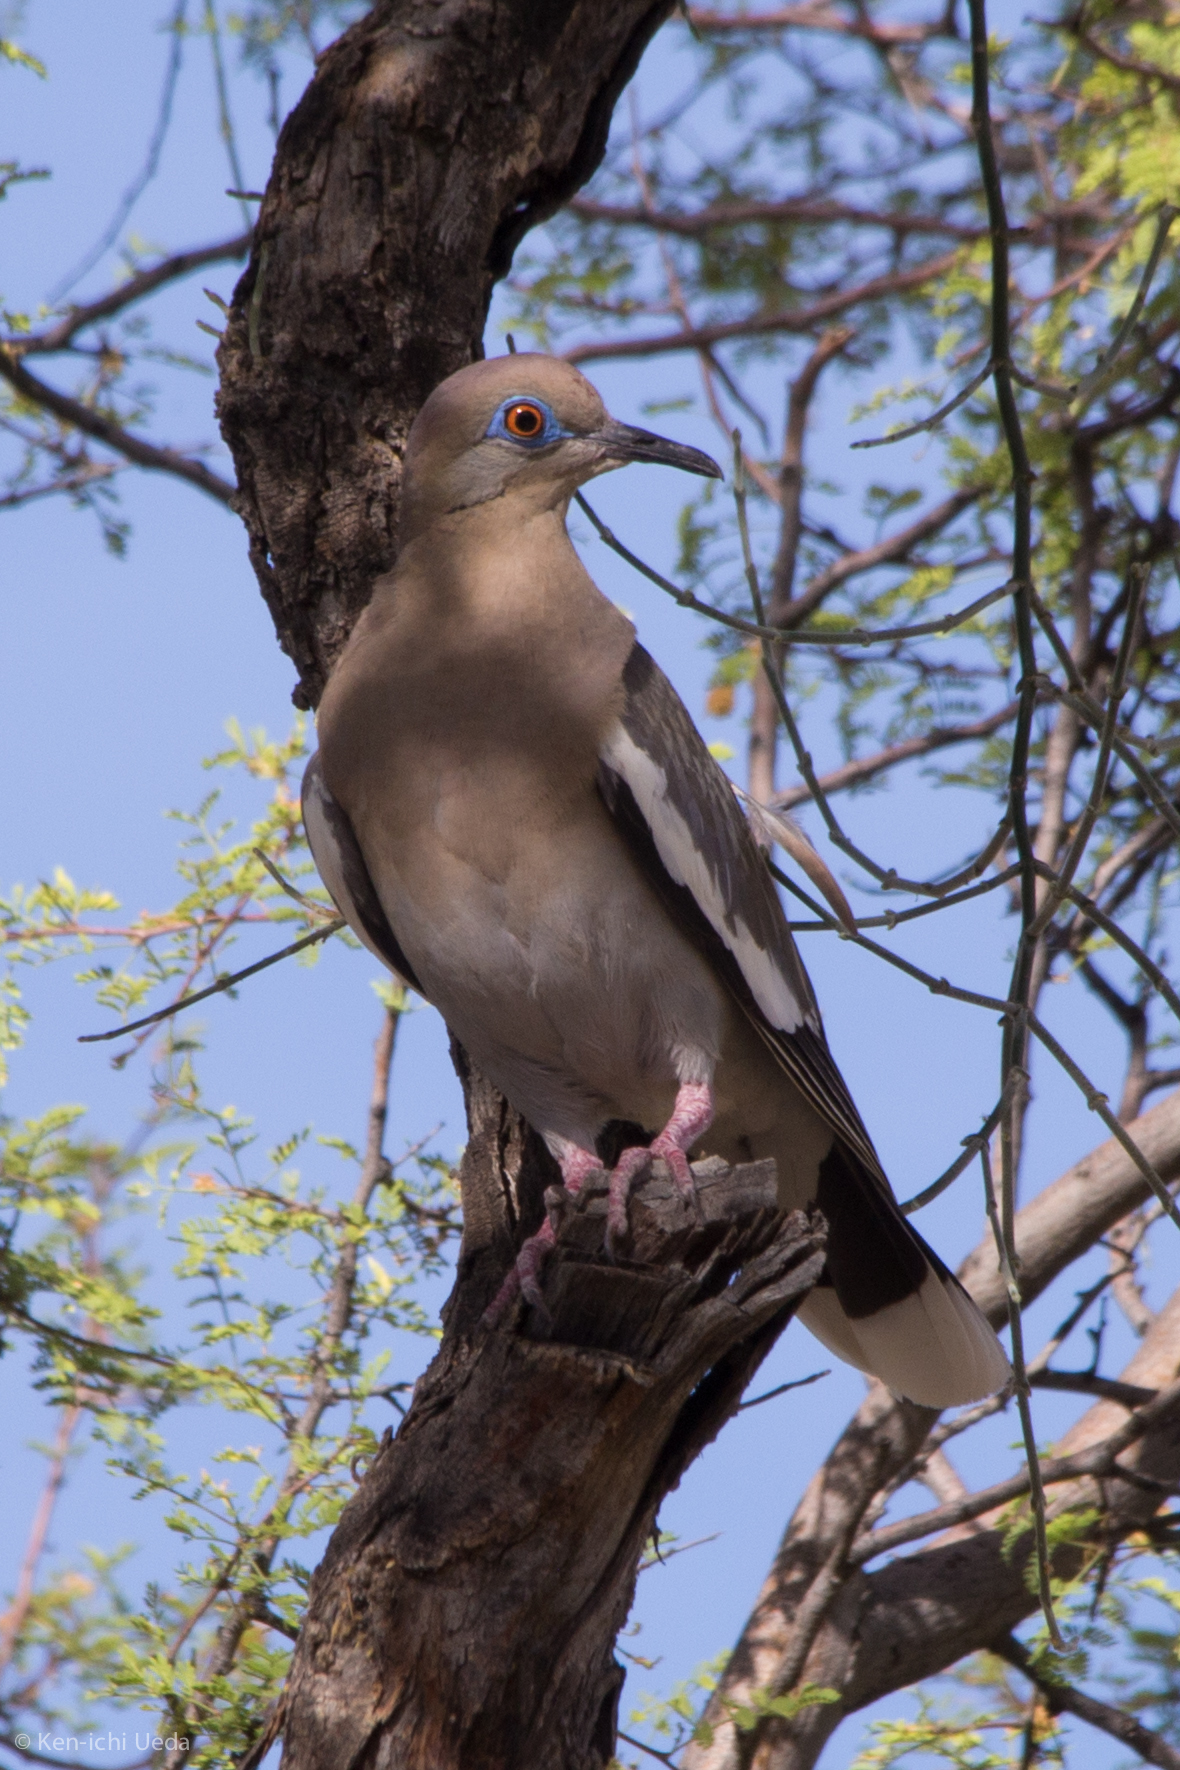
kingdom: Animalia
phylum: Chordata
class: Aves
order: Columbiformes
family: Columbidae
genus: Zenaida
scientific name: Zenaida asiatica
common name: White-winged dove
